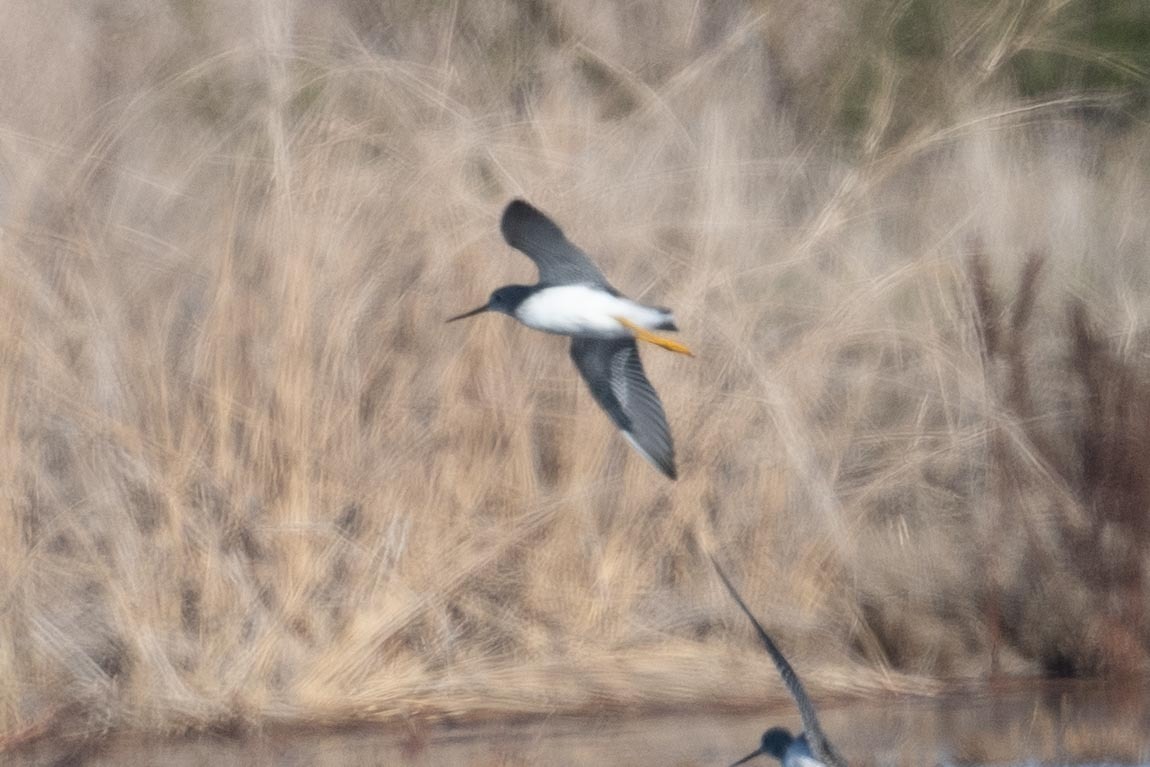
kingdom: Animalia
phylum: Chordata
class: Aves
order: Charadriiformes
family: Scolopacidae
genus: Tringa
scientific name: Tringa melanoleuca
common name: Greater yellowlegs
